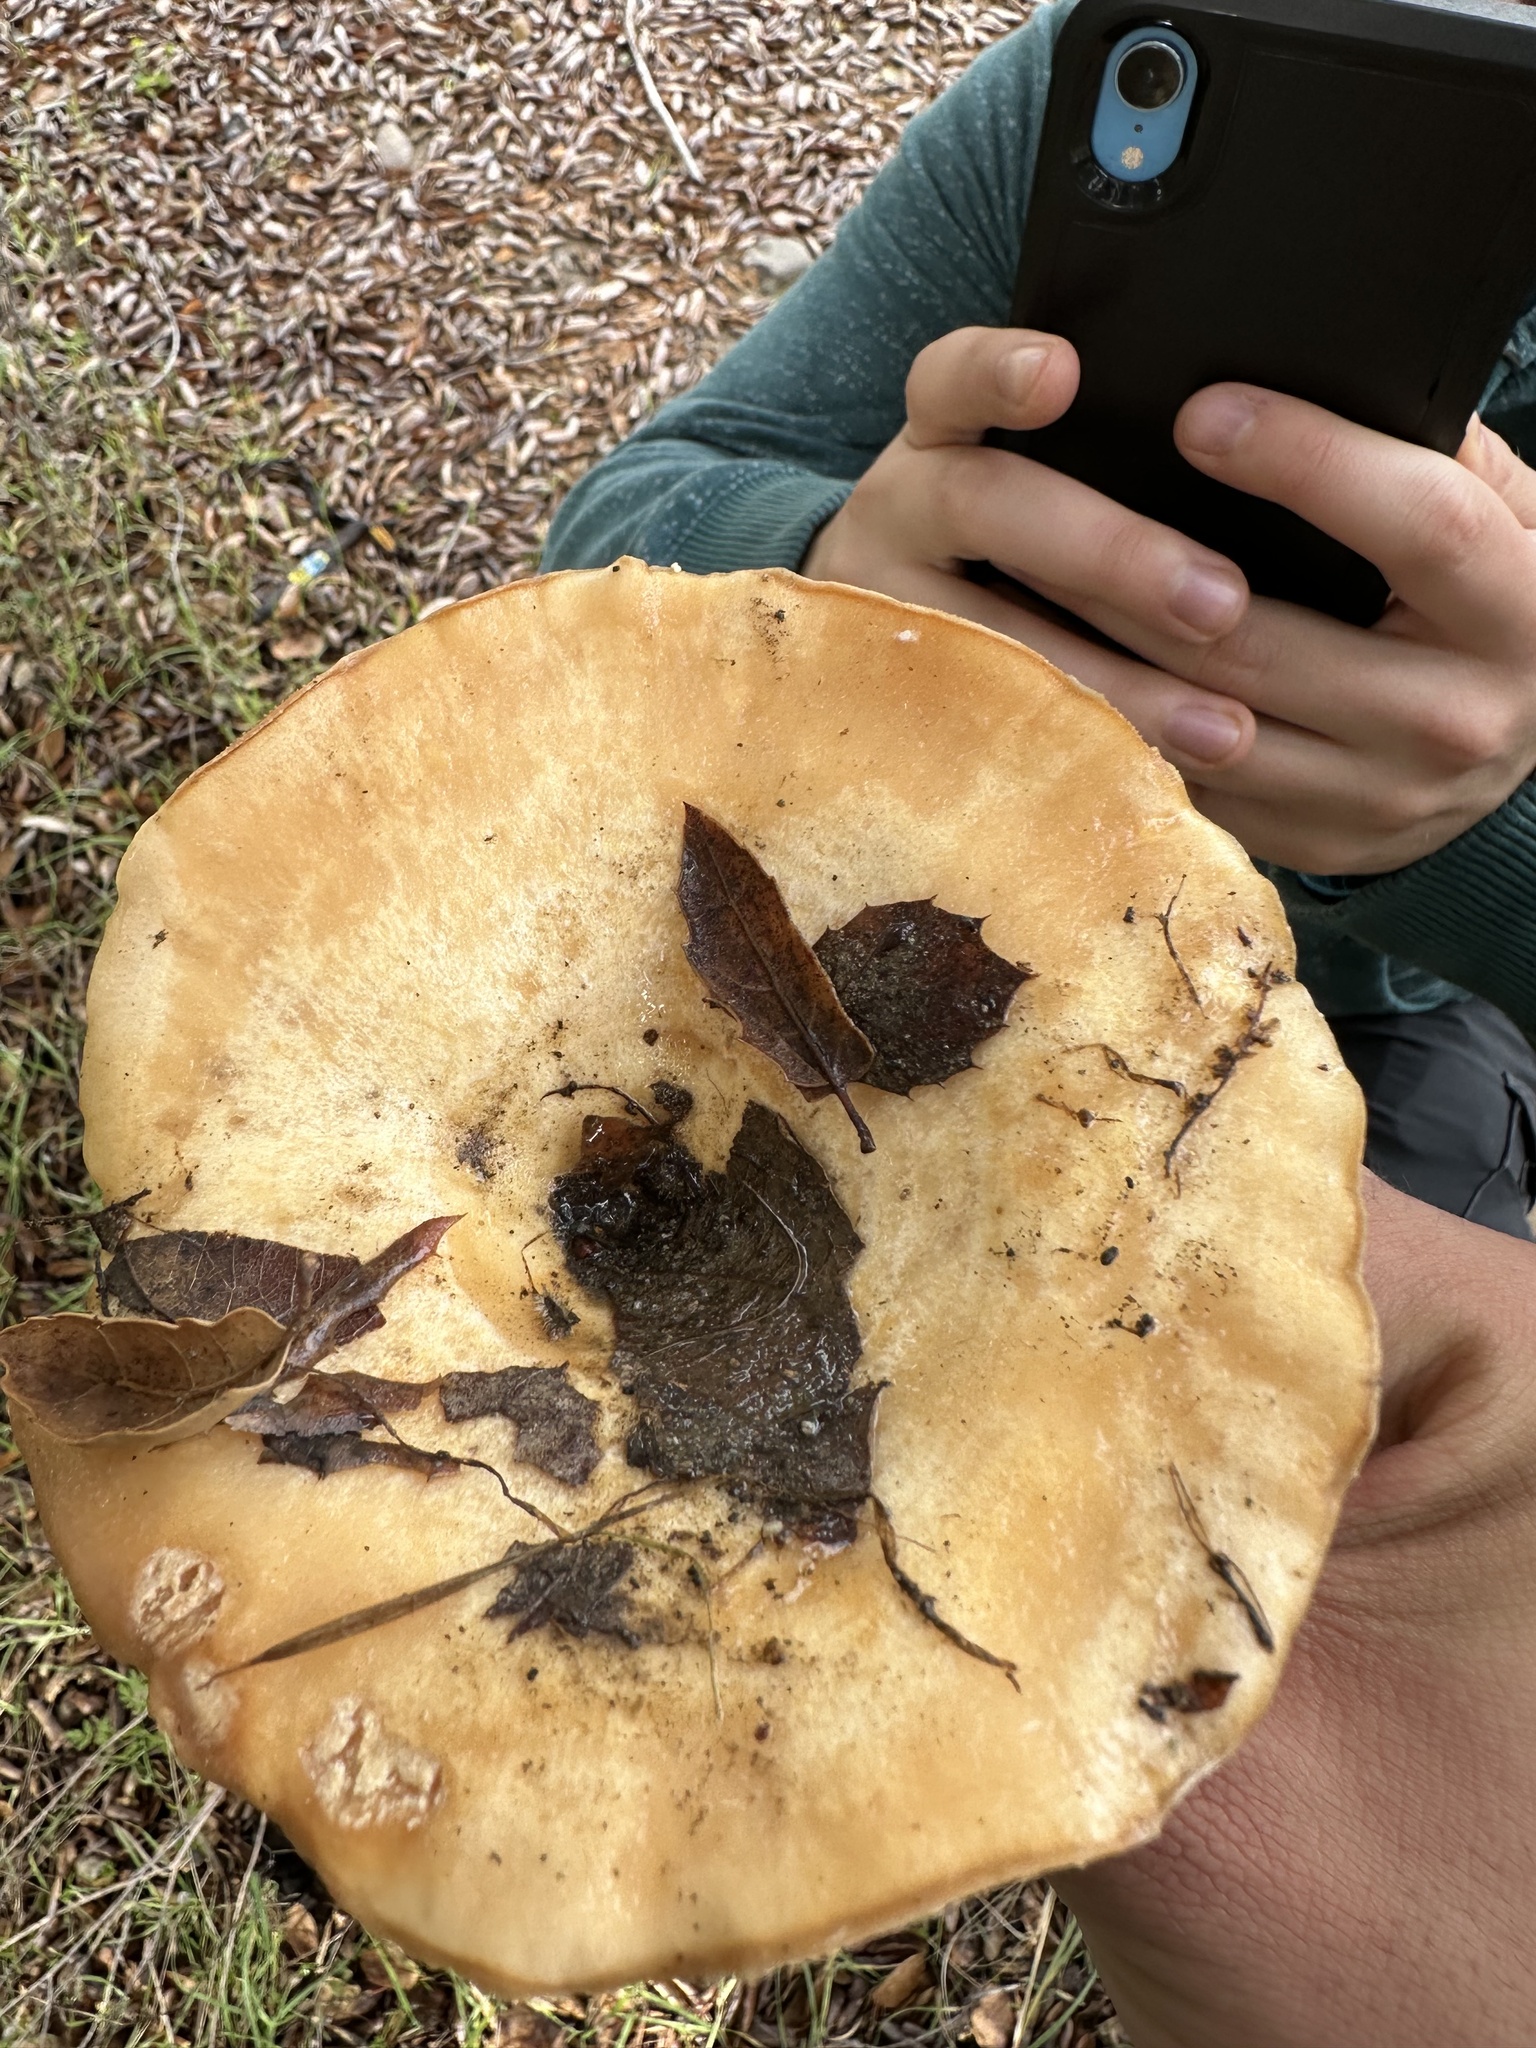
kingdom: Fungi
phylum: Basidiomycota
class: Agaricomycetes
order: Russulales
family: Russulaceae
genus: Lactarius
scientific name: Lactarius alnicola
